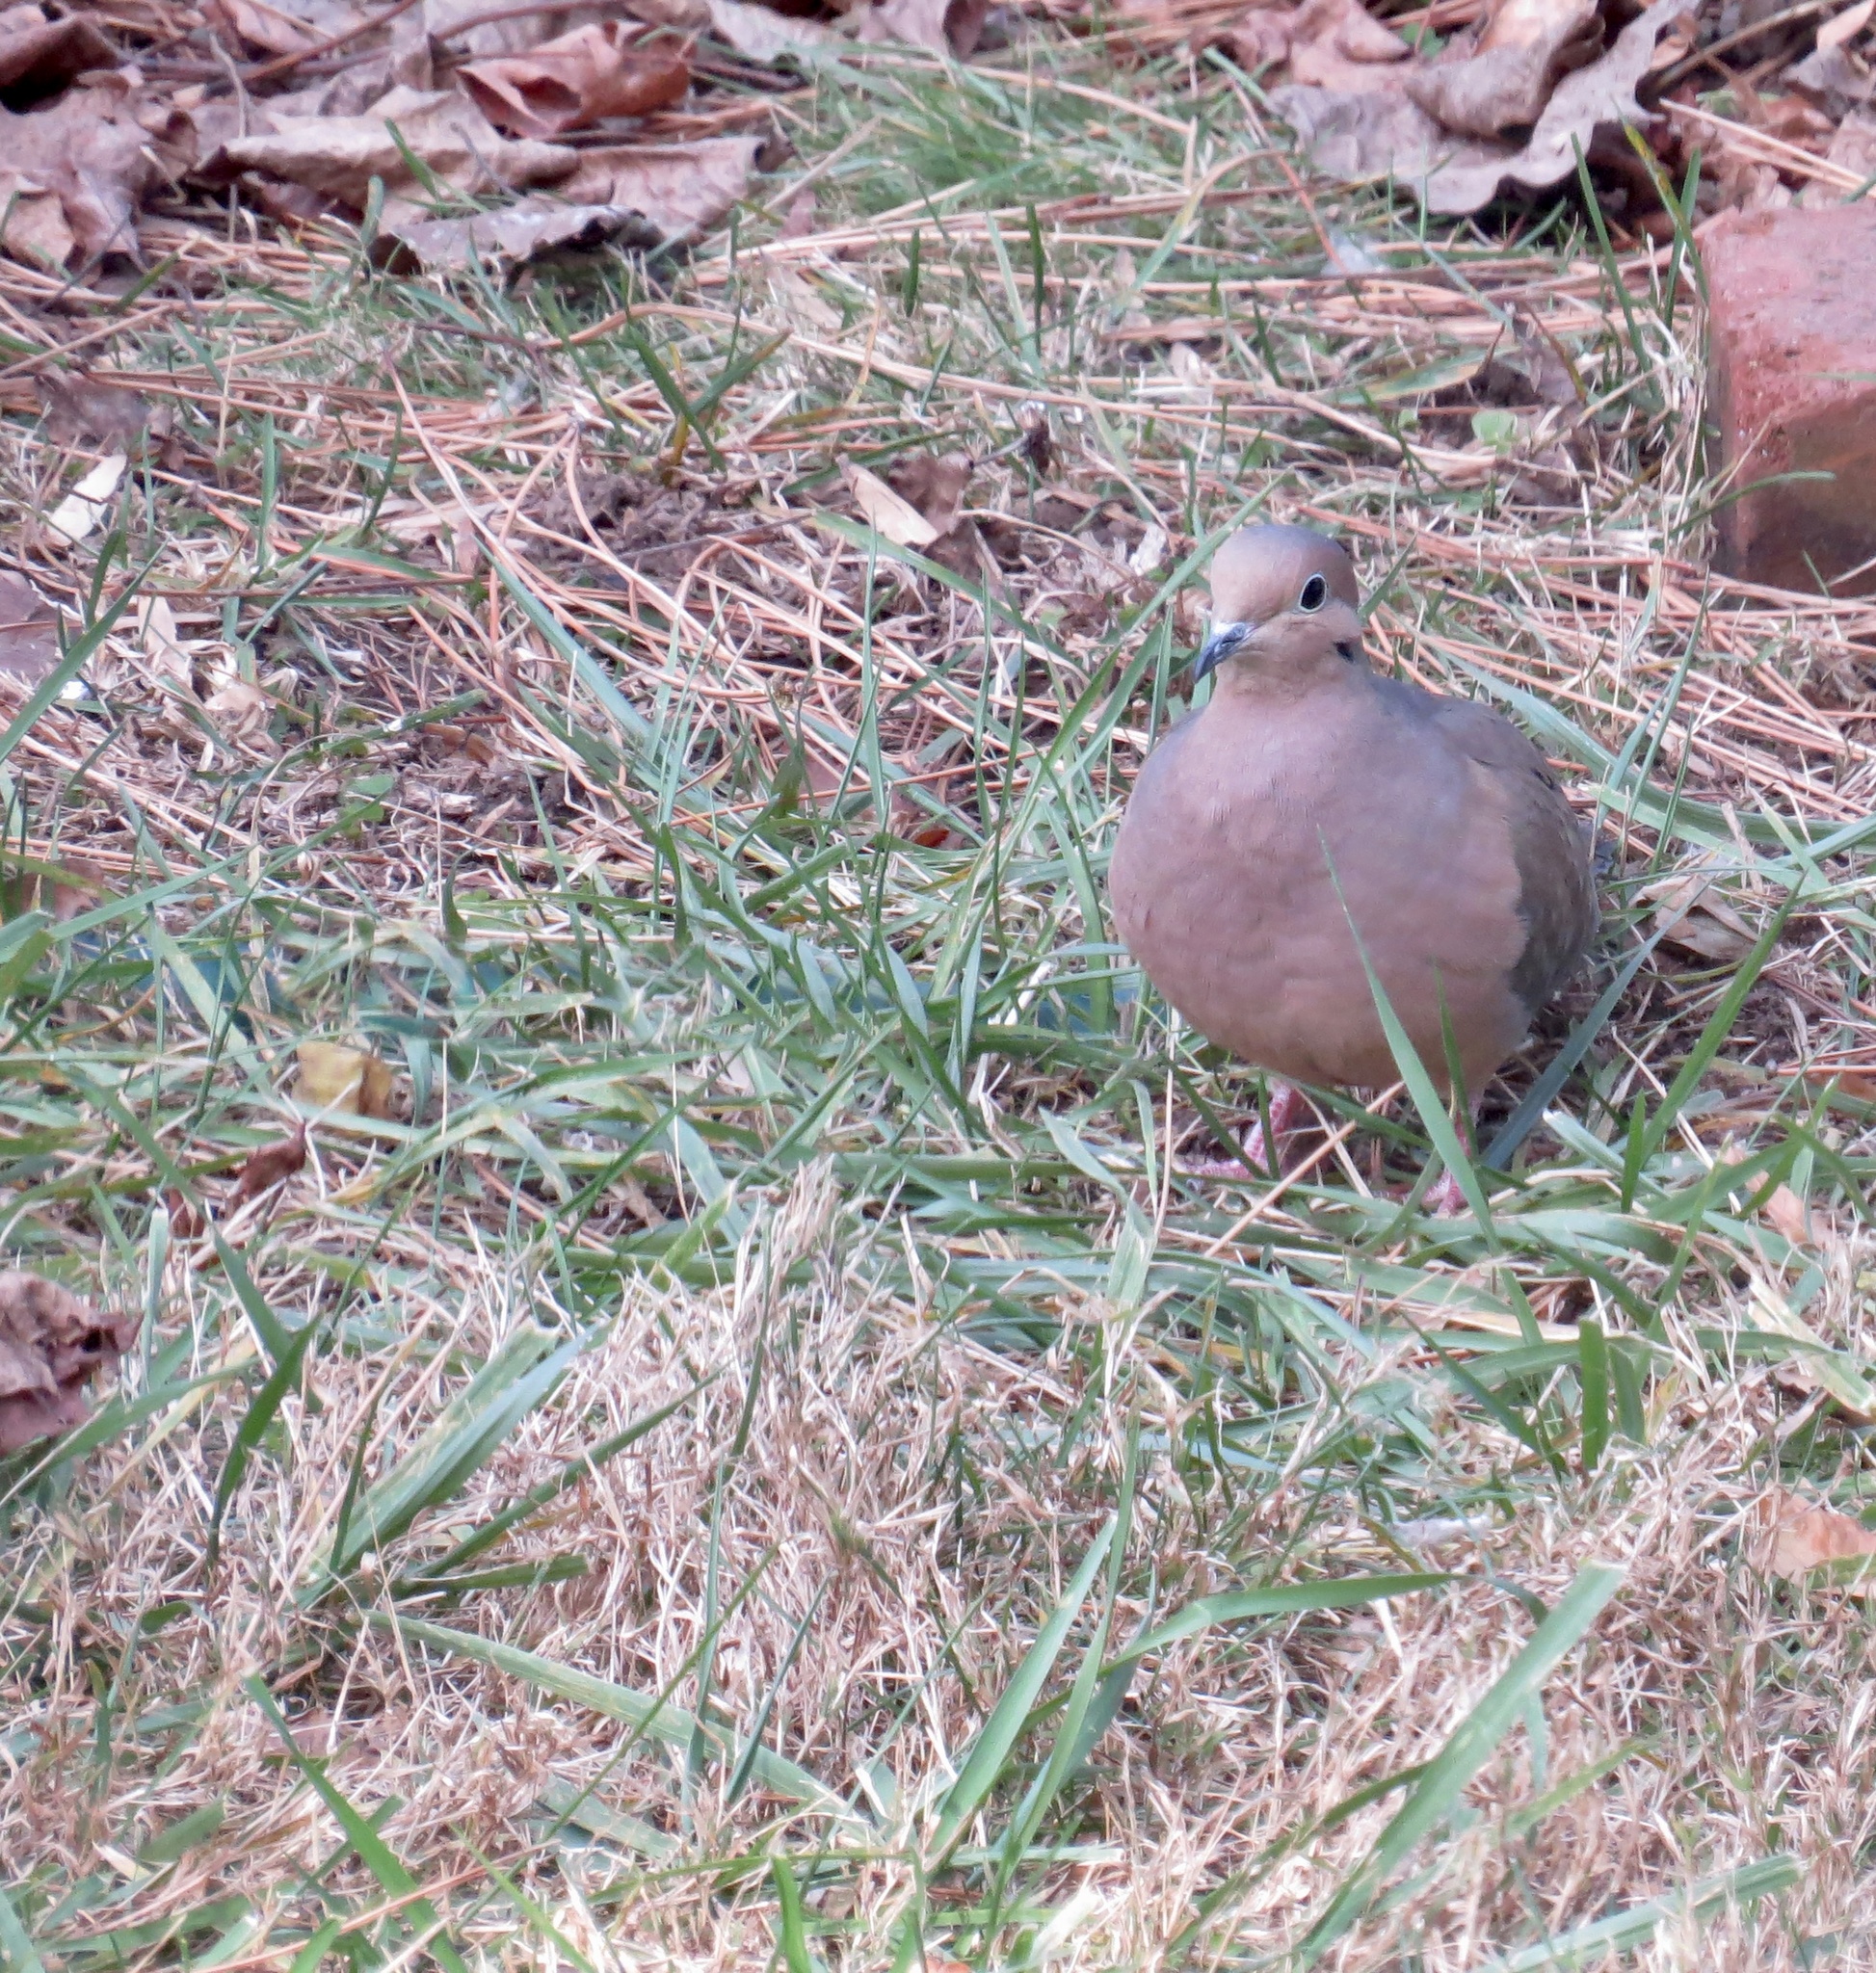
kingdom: Animalia
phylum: Chordata
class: Aves
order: Columbiformes
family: Columbidae
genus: Zenaida
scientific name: Zenaida macroura
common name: Mourning dove
